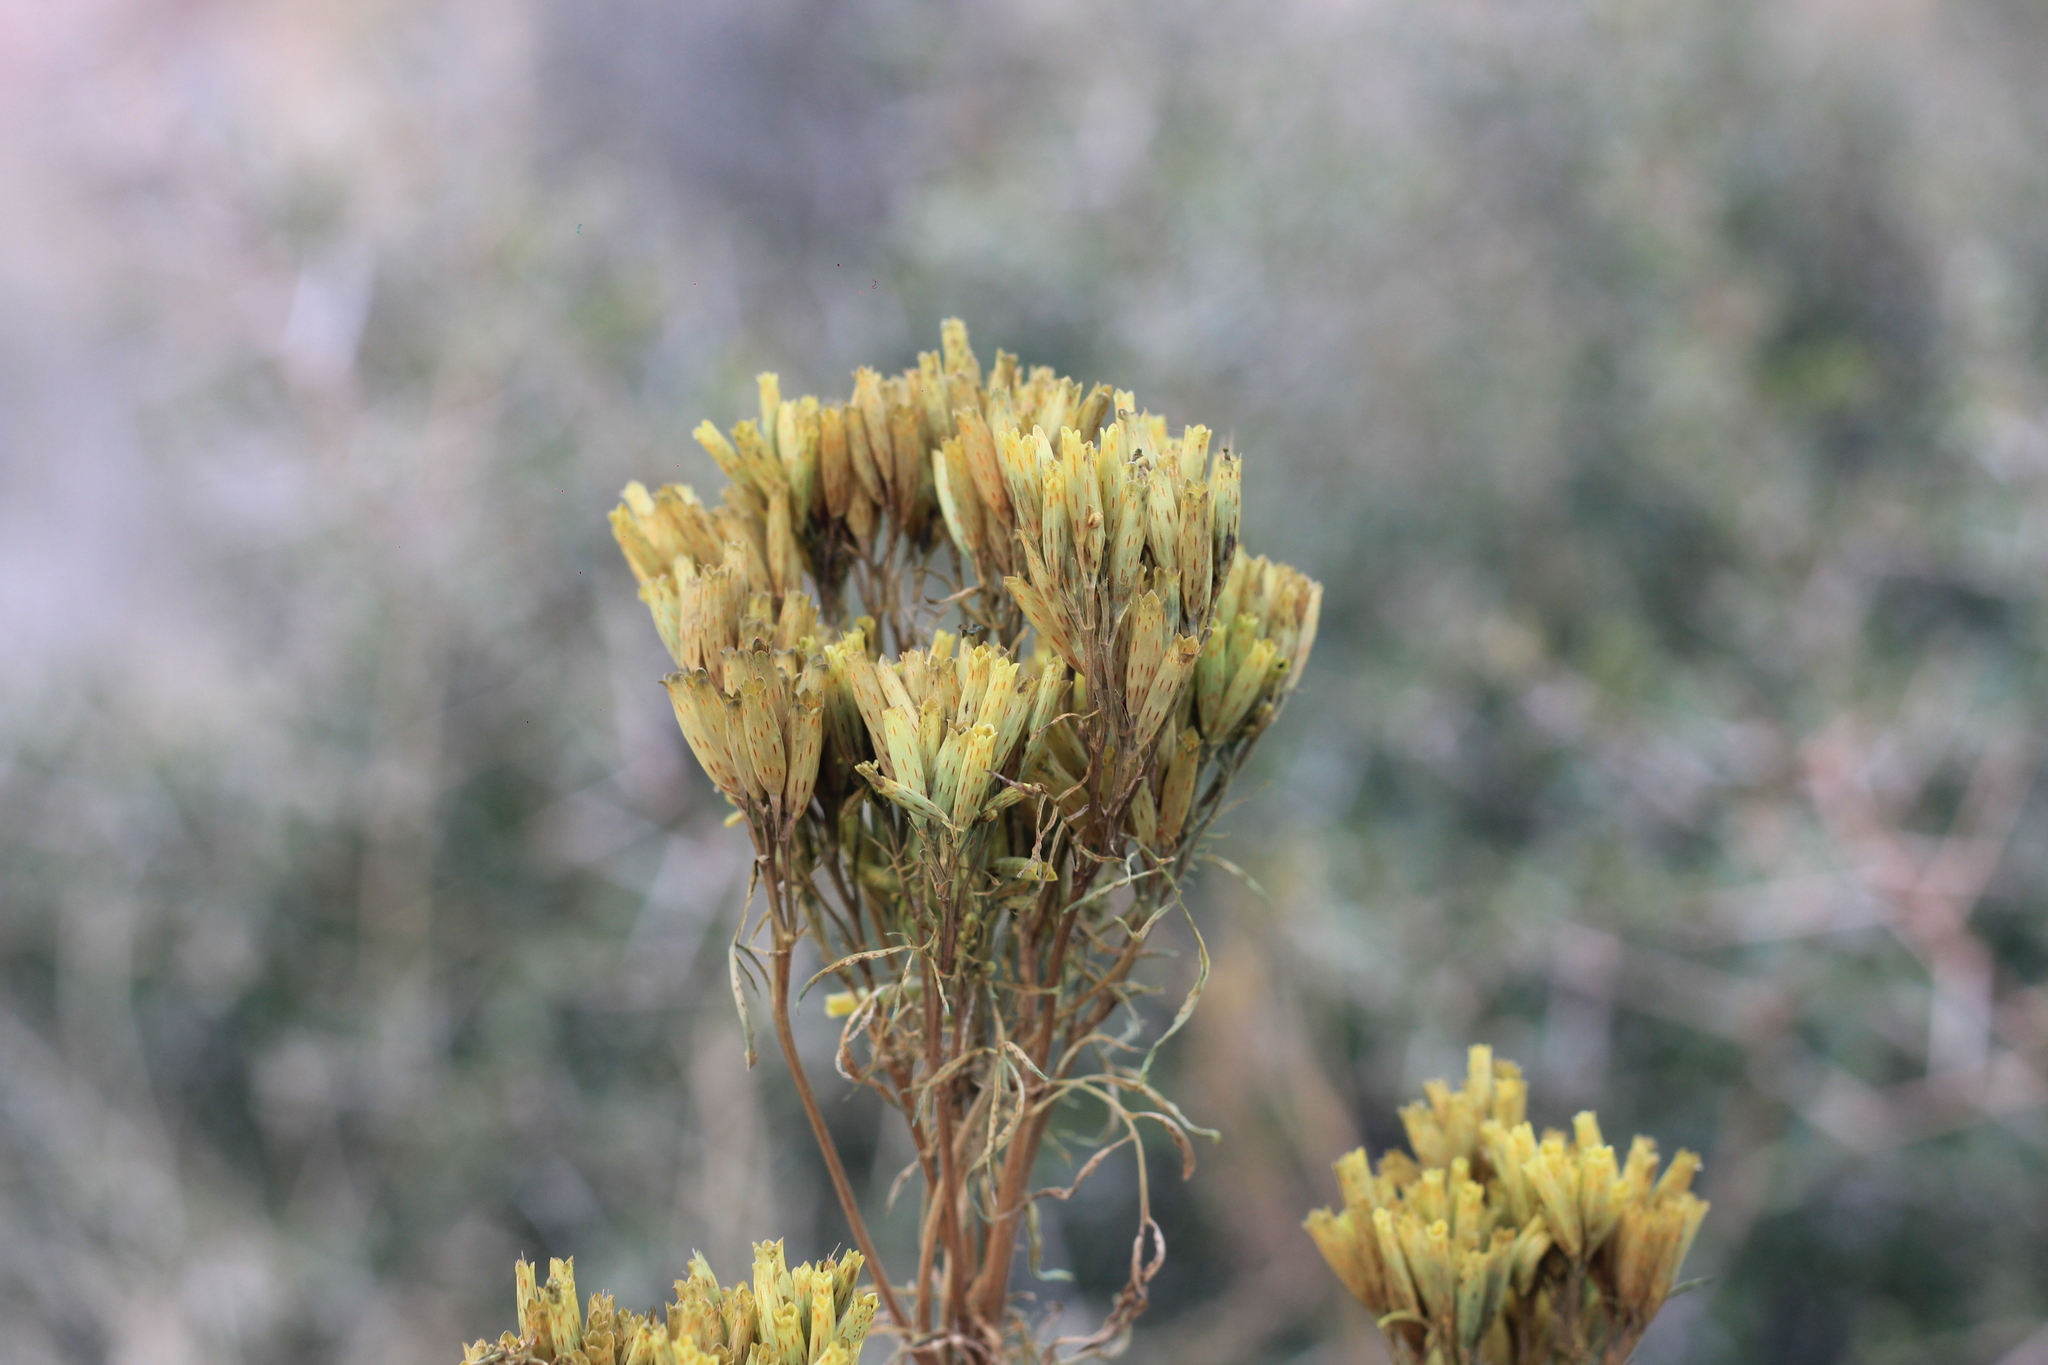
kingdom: Plantae
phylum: Tracheophyta
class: Magnoliopsida
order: Asterales
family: Asteraceae
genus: Tagetes
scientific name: Tagetes minuta
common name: Muster john henry
